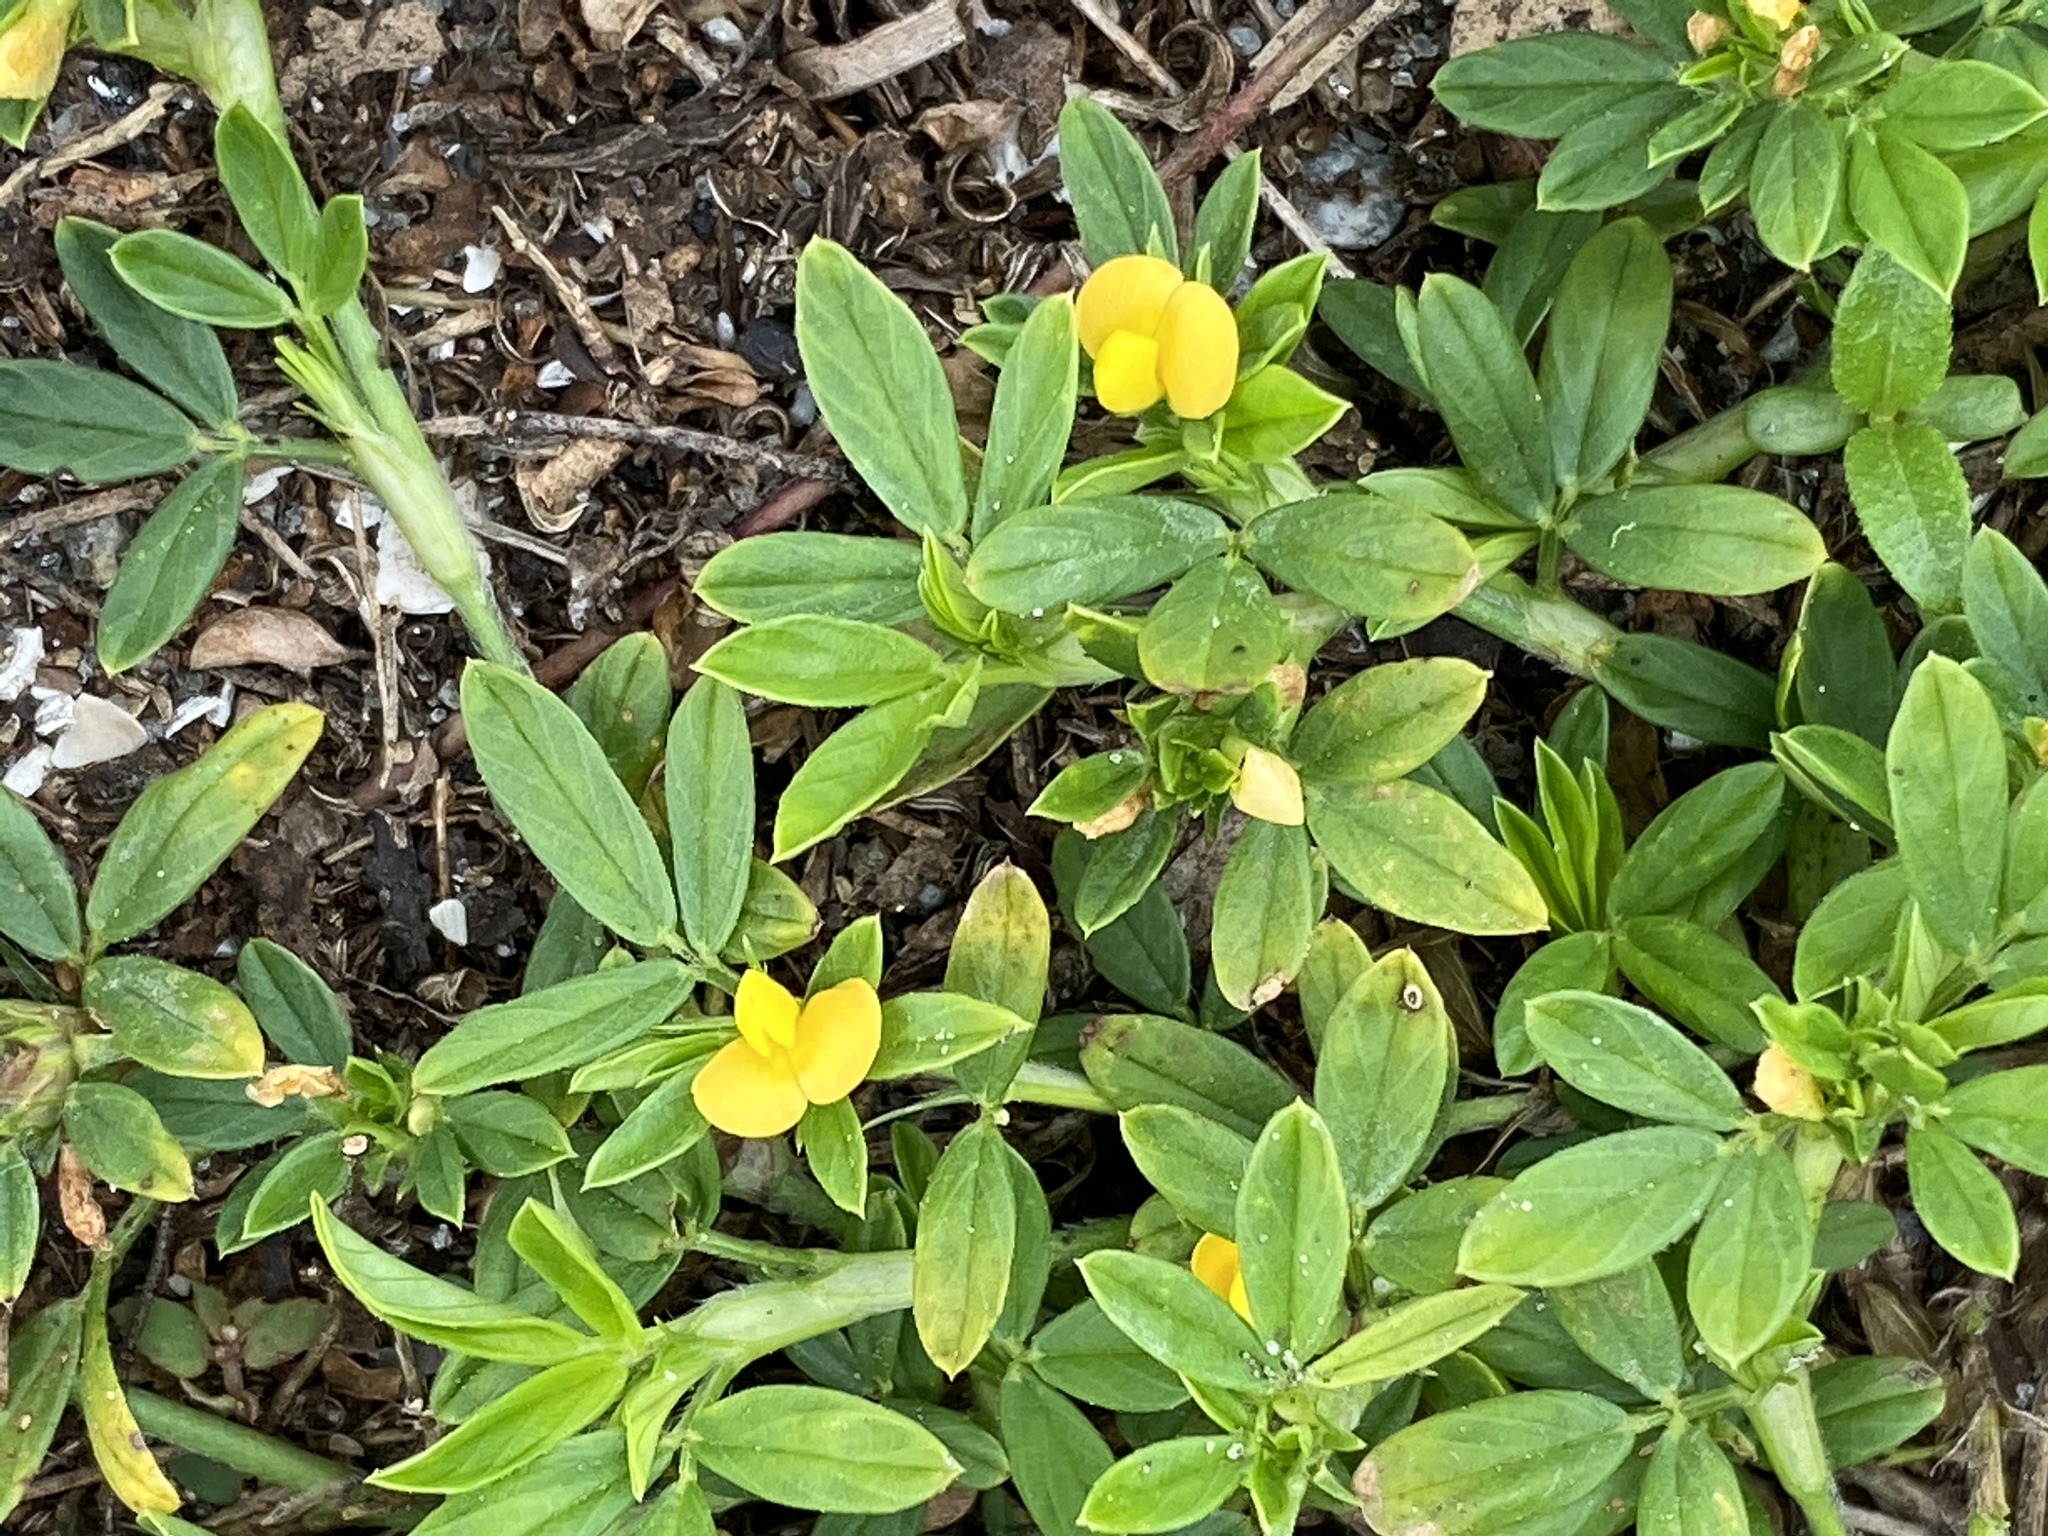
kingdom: Plantae
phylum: Tracheophyta
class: Magnoliopsida
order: Fabales
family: Fabaceae
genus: Stylosanthes
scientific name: Stylosanthes biflora
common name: Two-flower pencil-flower
